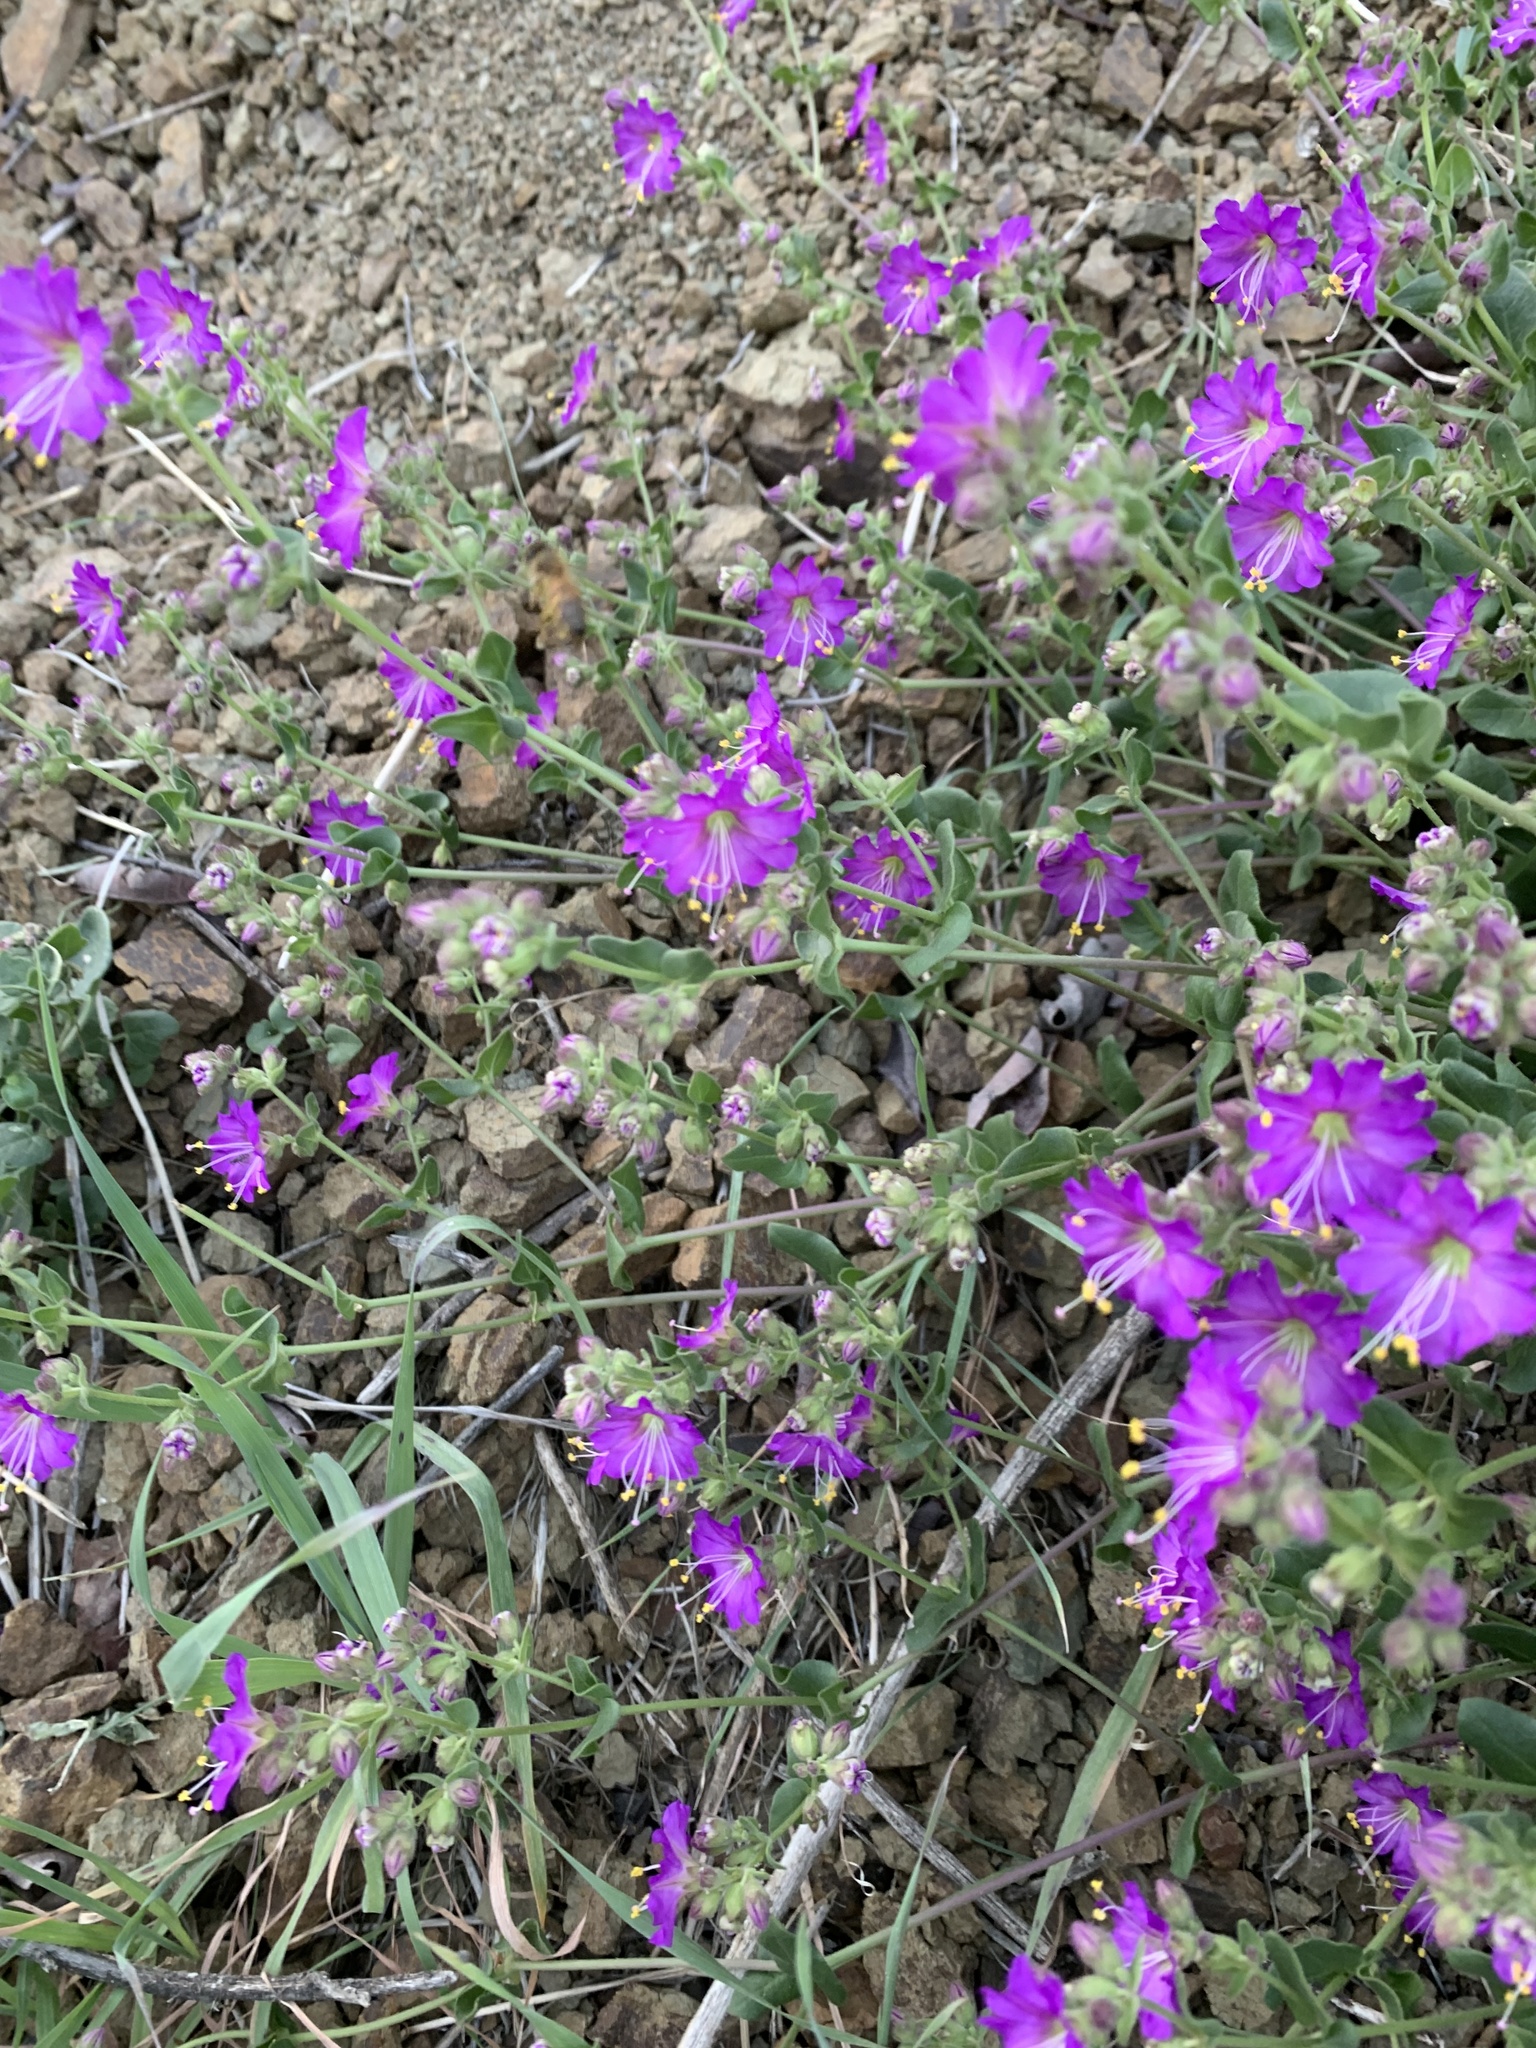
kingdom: Plantae
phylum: Tracheophyta
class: Magnoliopsida
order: Caryophyllales
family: Nyctaginaceae
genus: Mirabilis
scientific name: Mirabilis laevis
